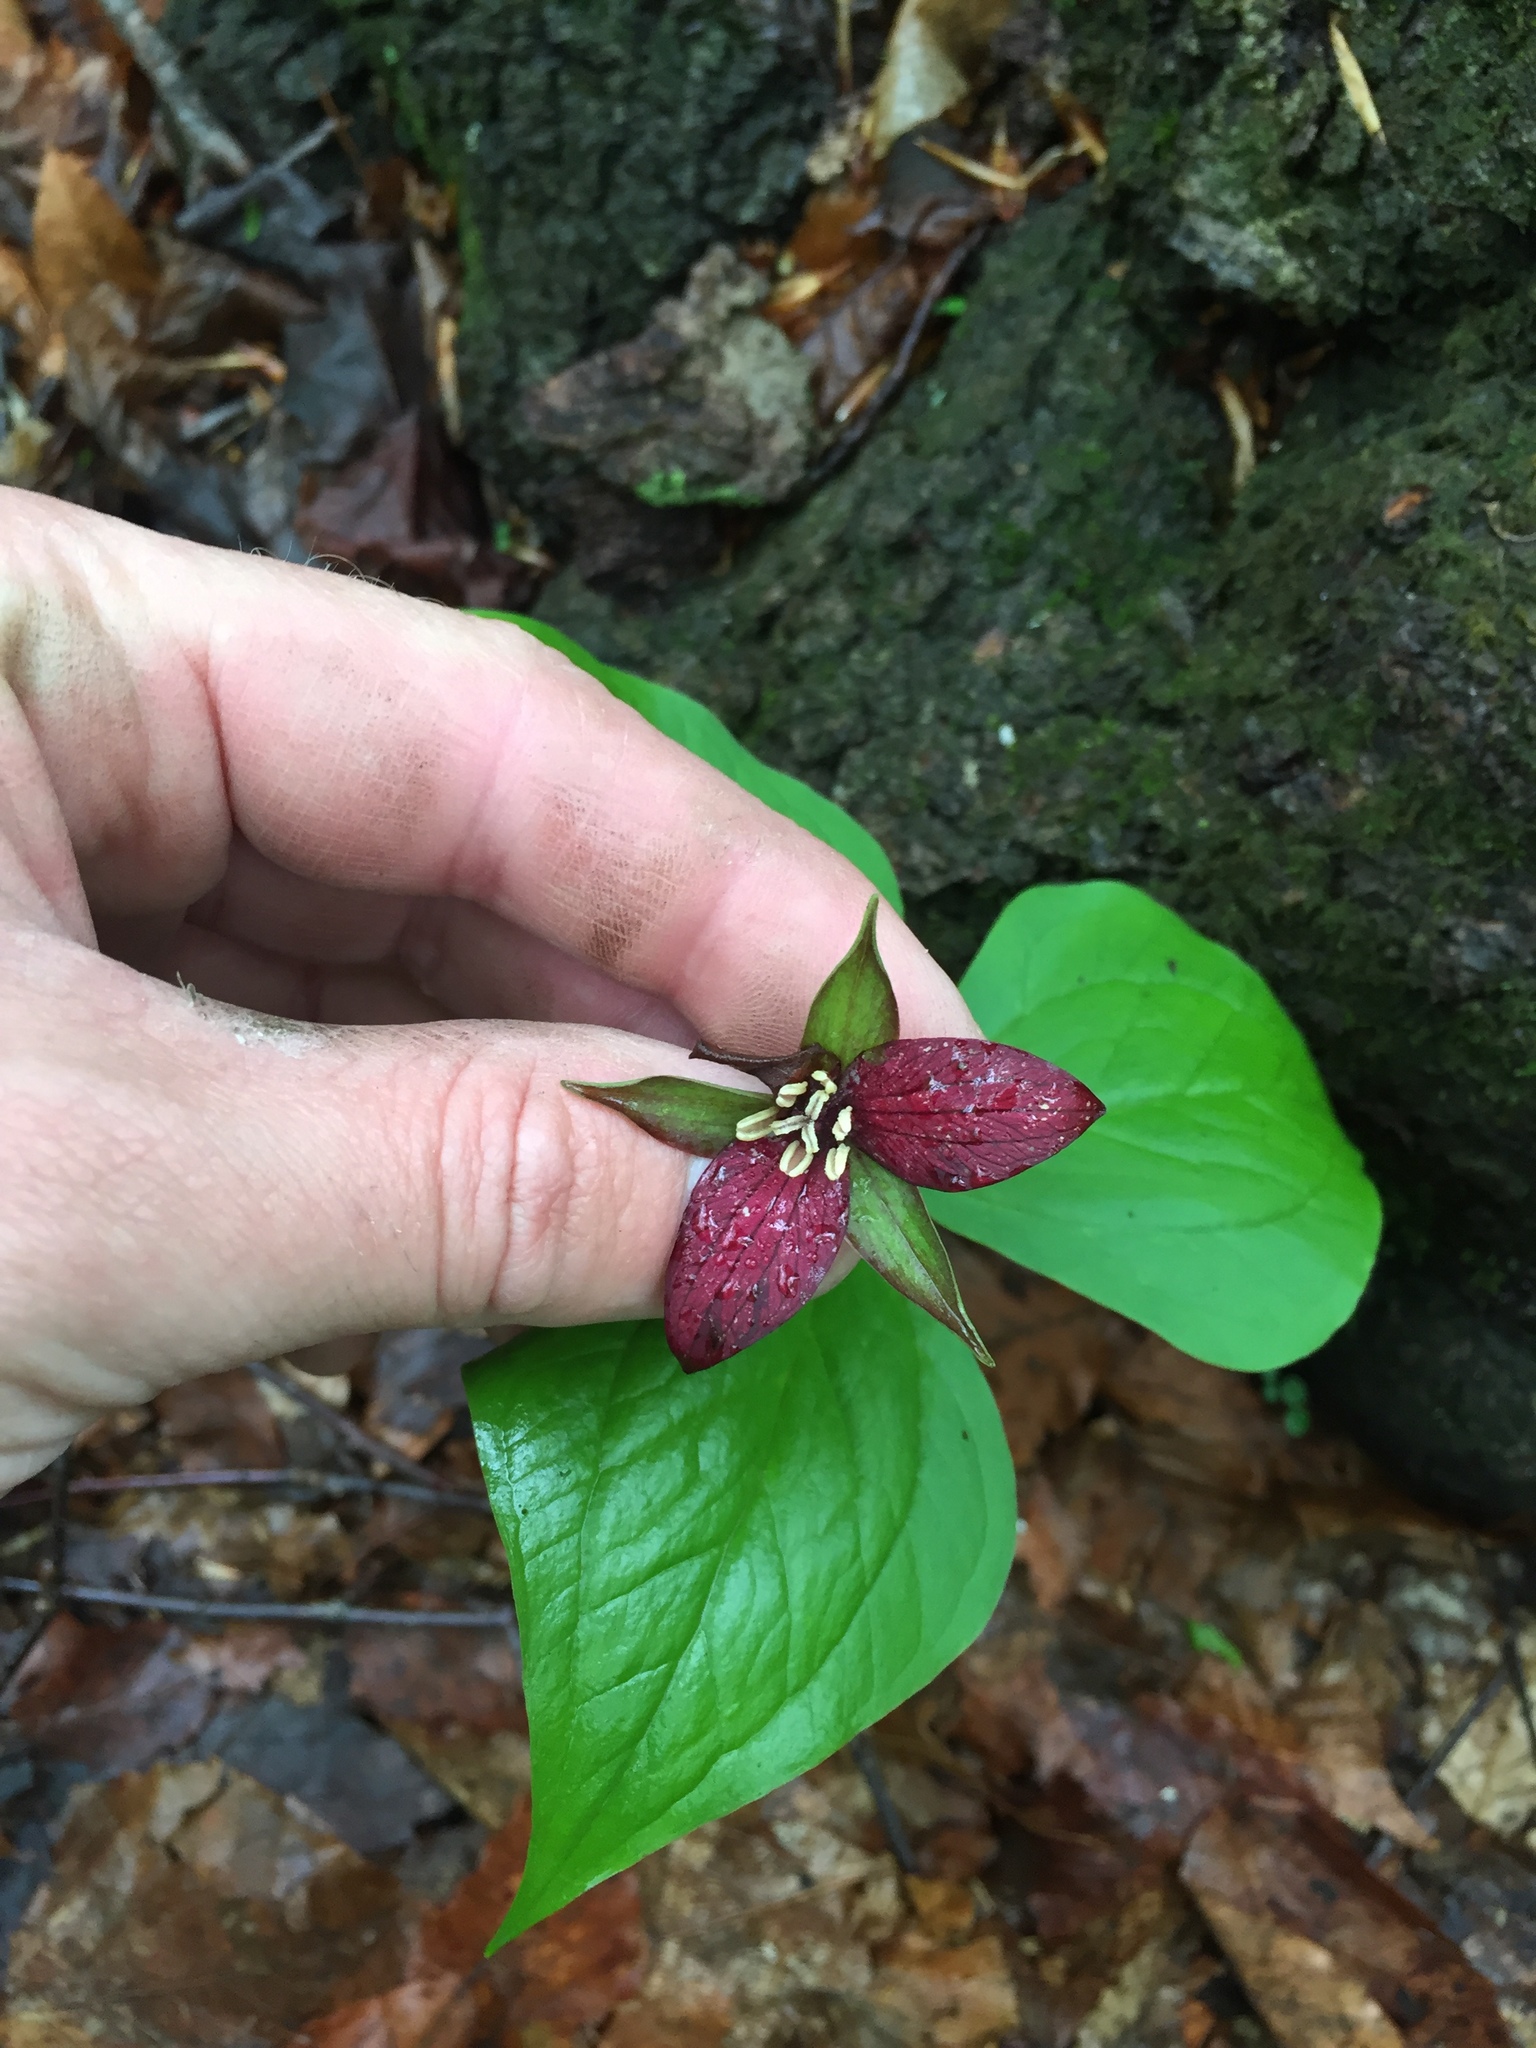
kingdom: Plantae
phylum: Tracheophyta
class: Liliopsida
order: Liliales
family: Melanthiaceae
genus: Trillium
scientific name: Trillium erectum
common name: Purple trillium
